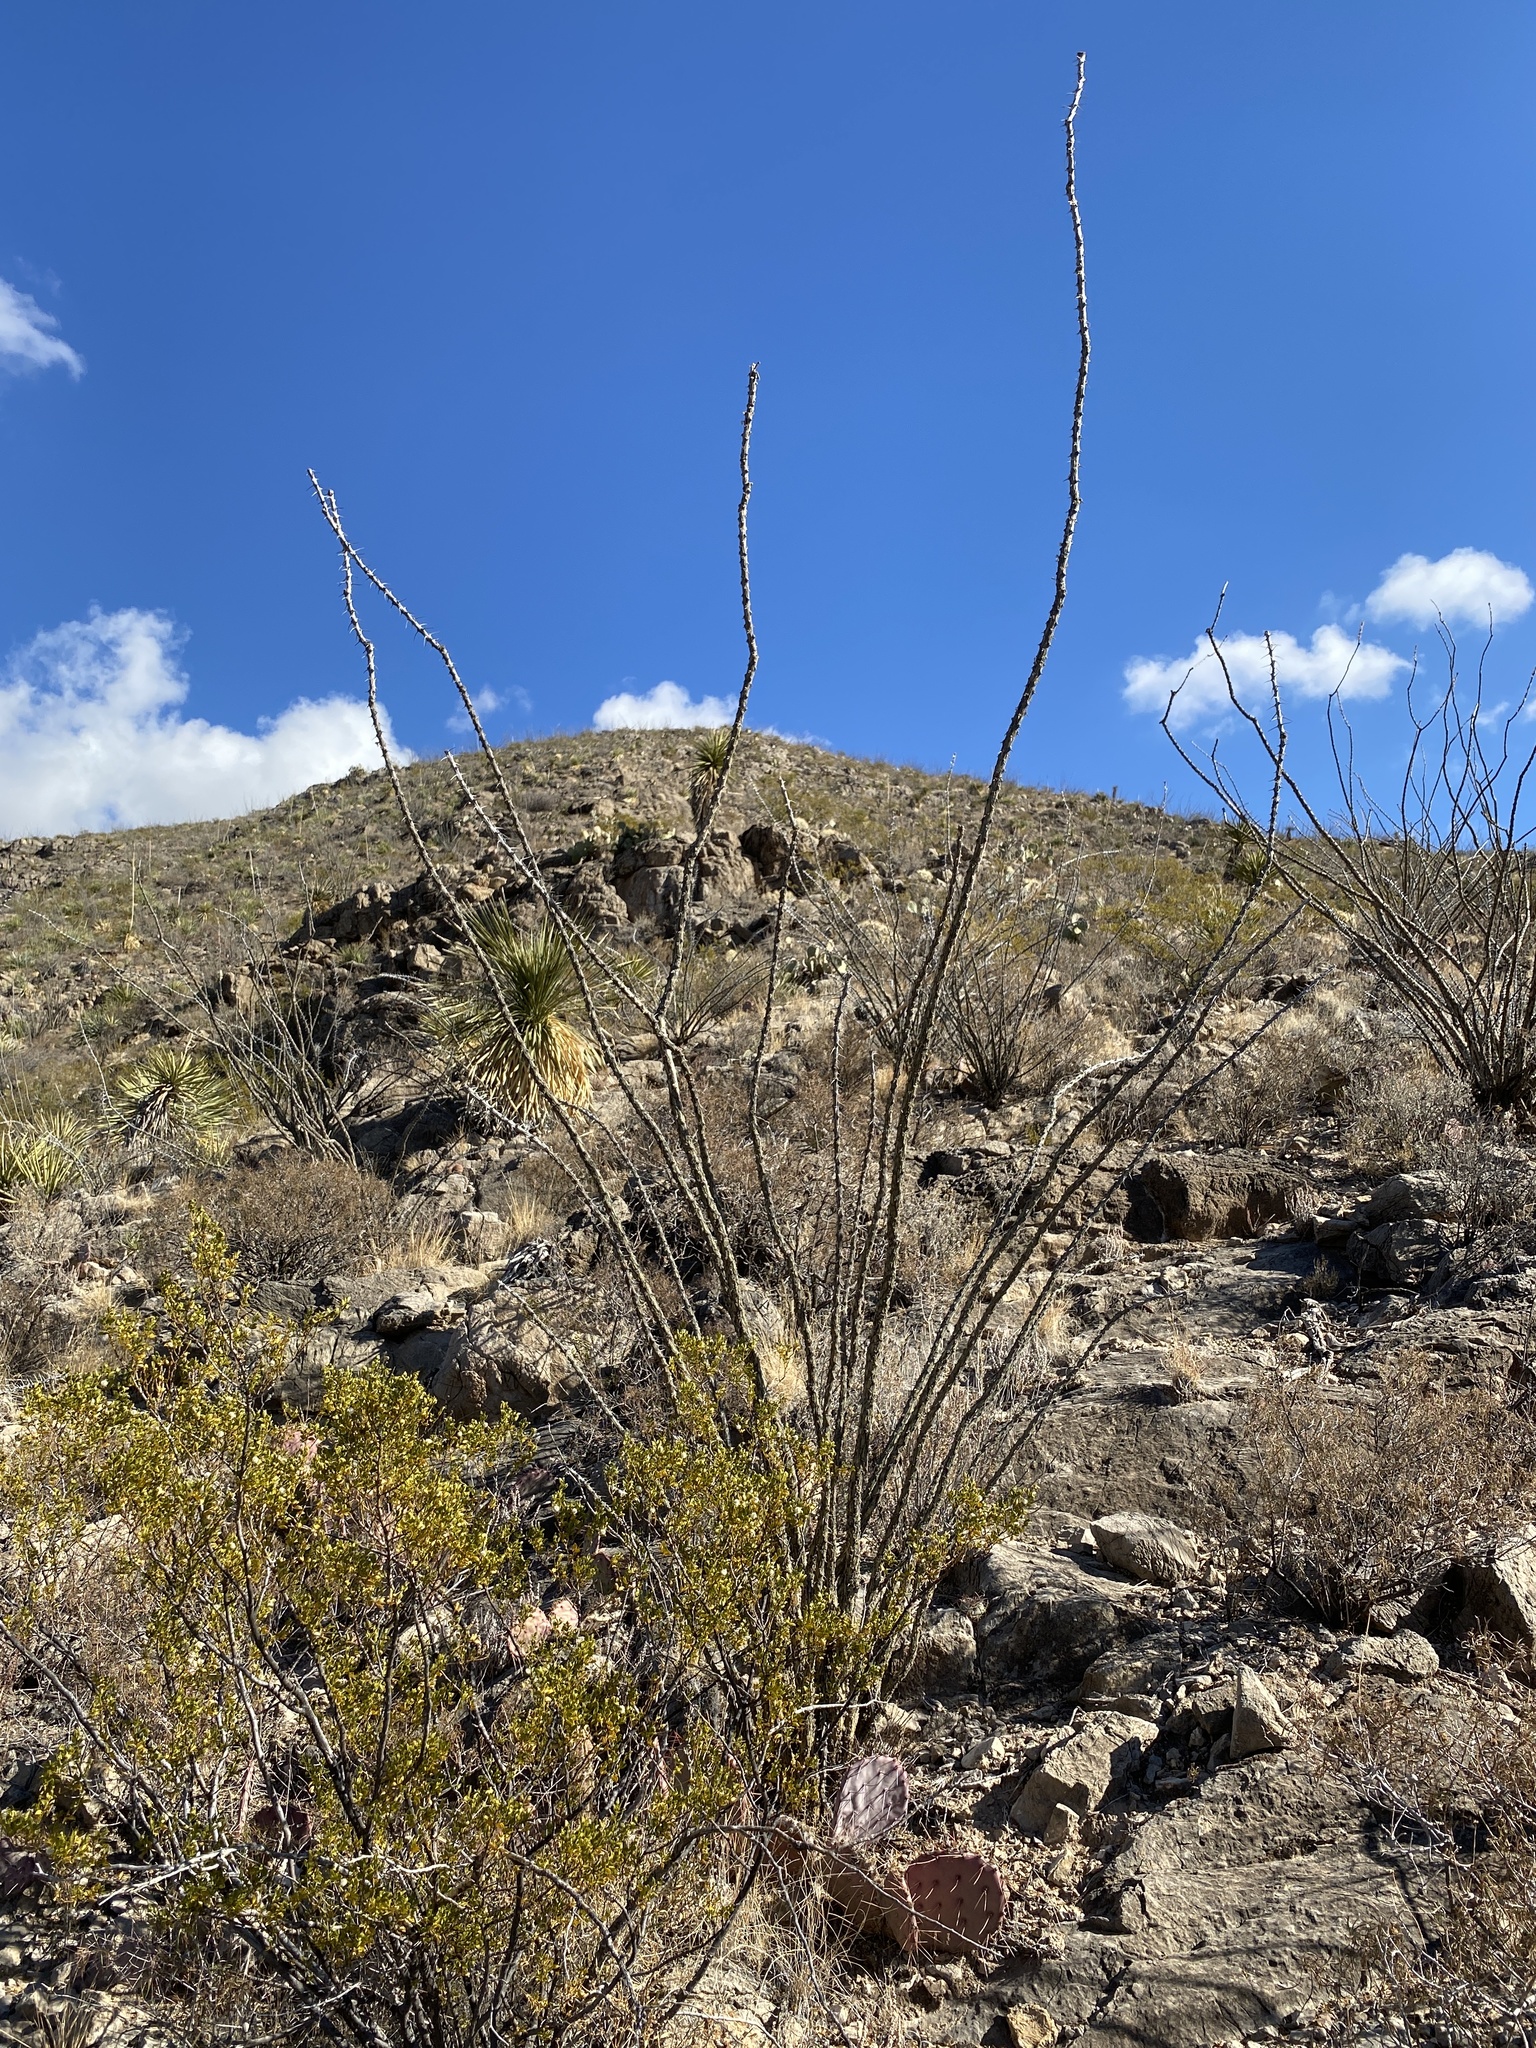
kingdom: Plantae
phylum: Tracheophyta
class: Magnoliopsida
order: Ericales
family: Fouquieriaceae
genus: Fouquieria
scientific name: Fouquieria splendens
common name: Vine-cactus
